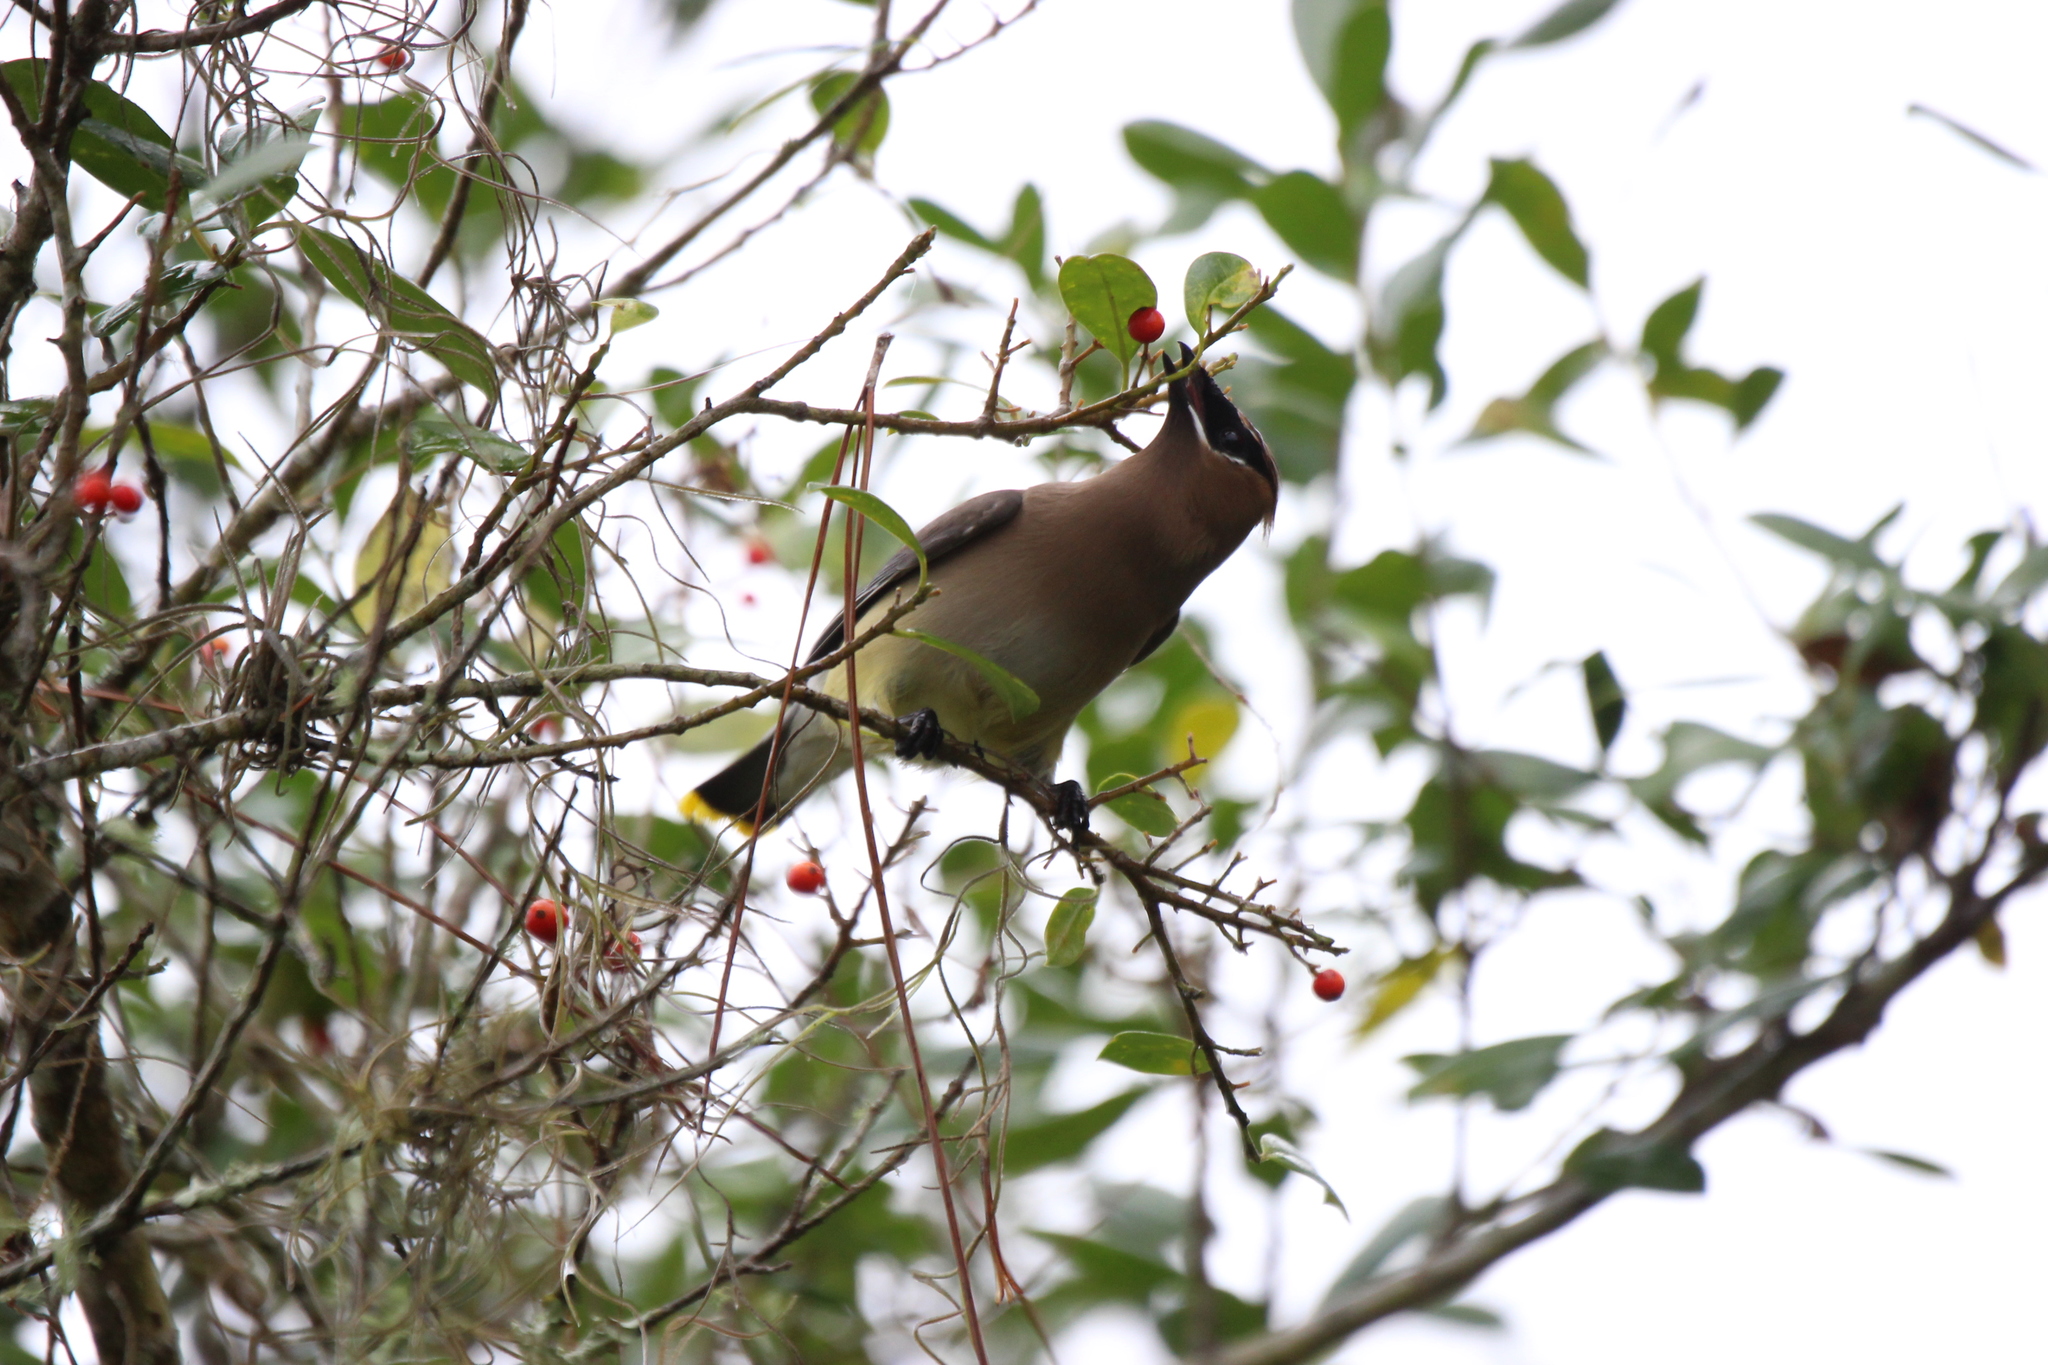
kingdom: Animalia
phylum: Chordata
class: Aves
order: Passeriformes
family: Bombycillidae
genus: Bombycilla
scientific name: Bombycilla cedrorum
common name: Cedar waxwing
